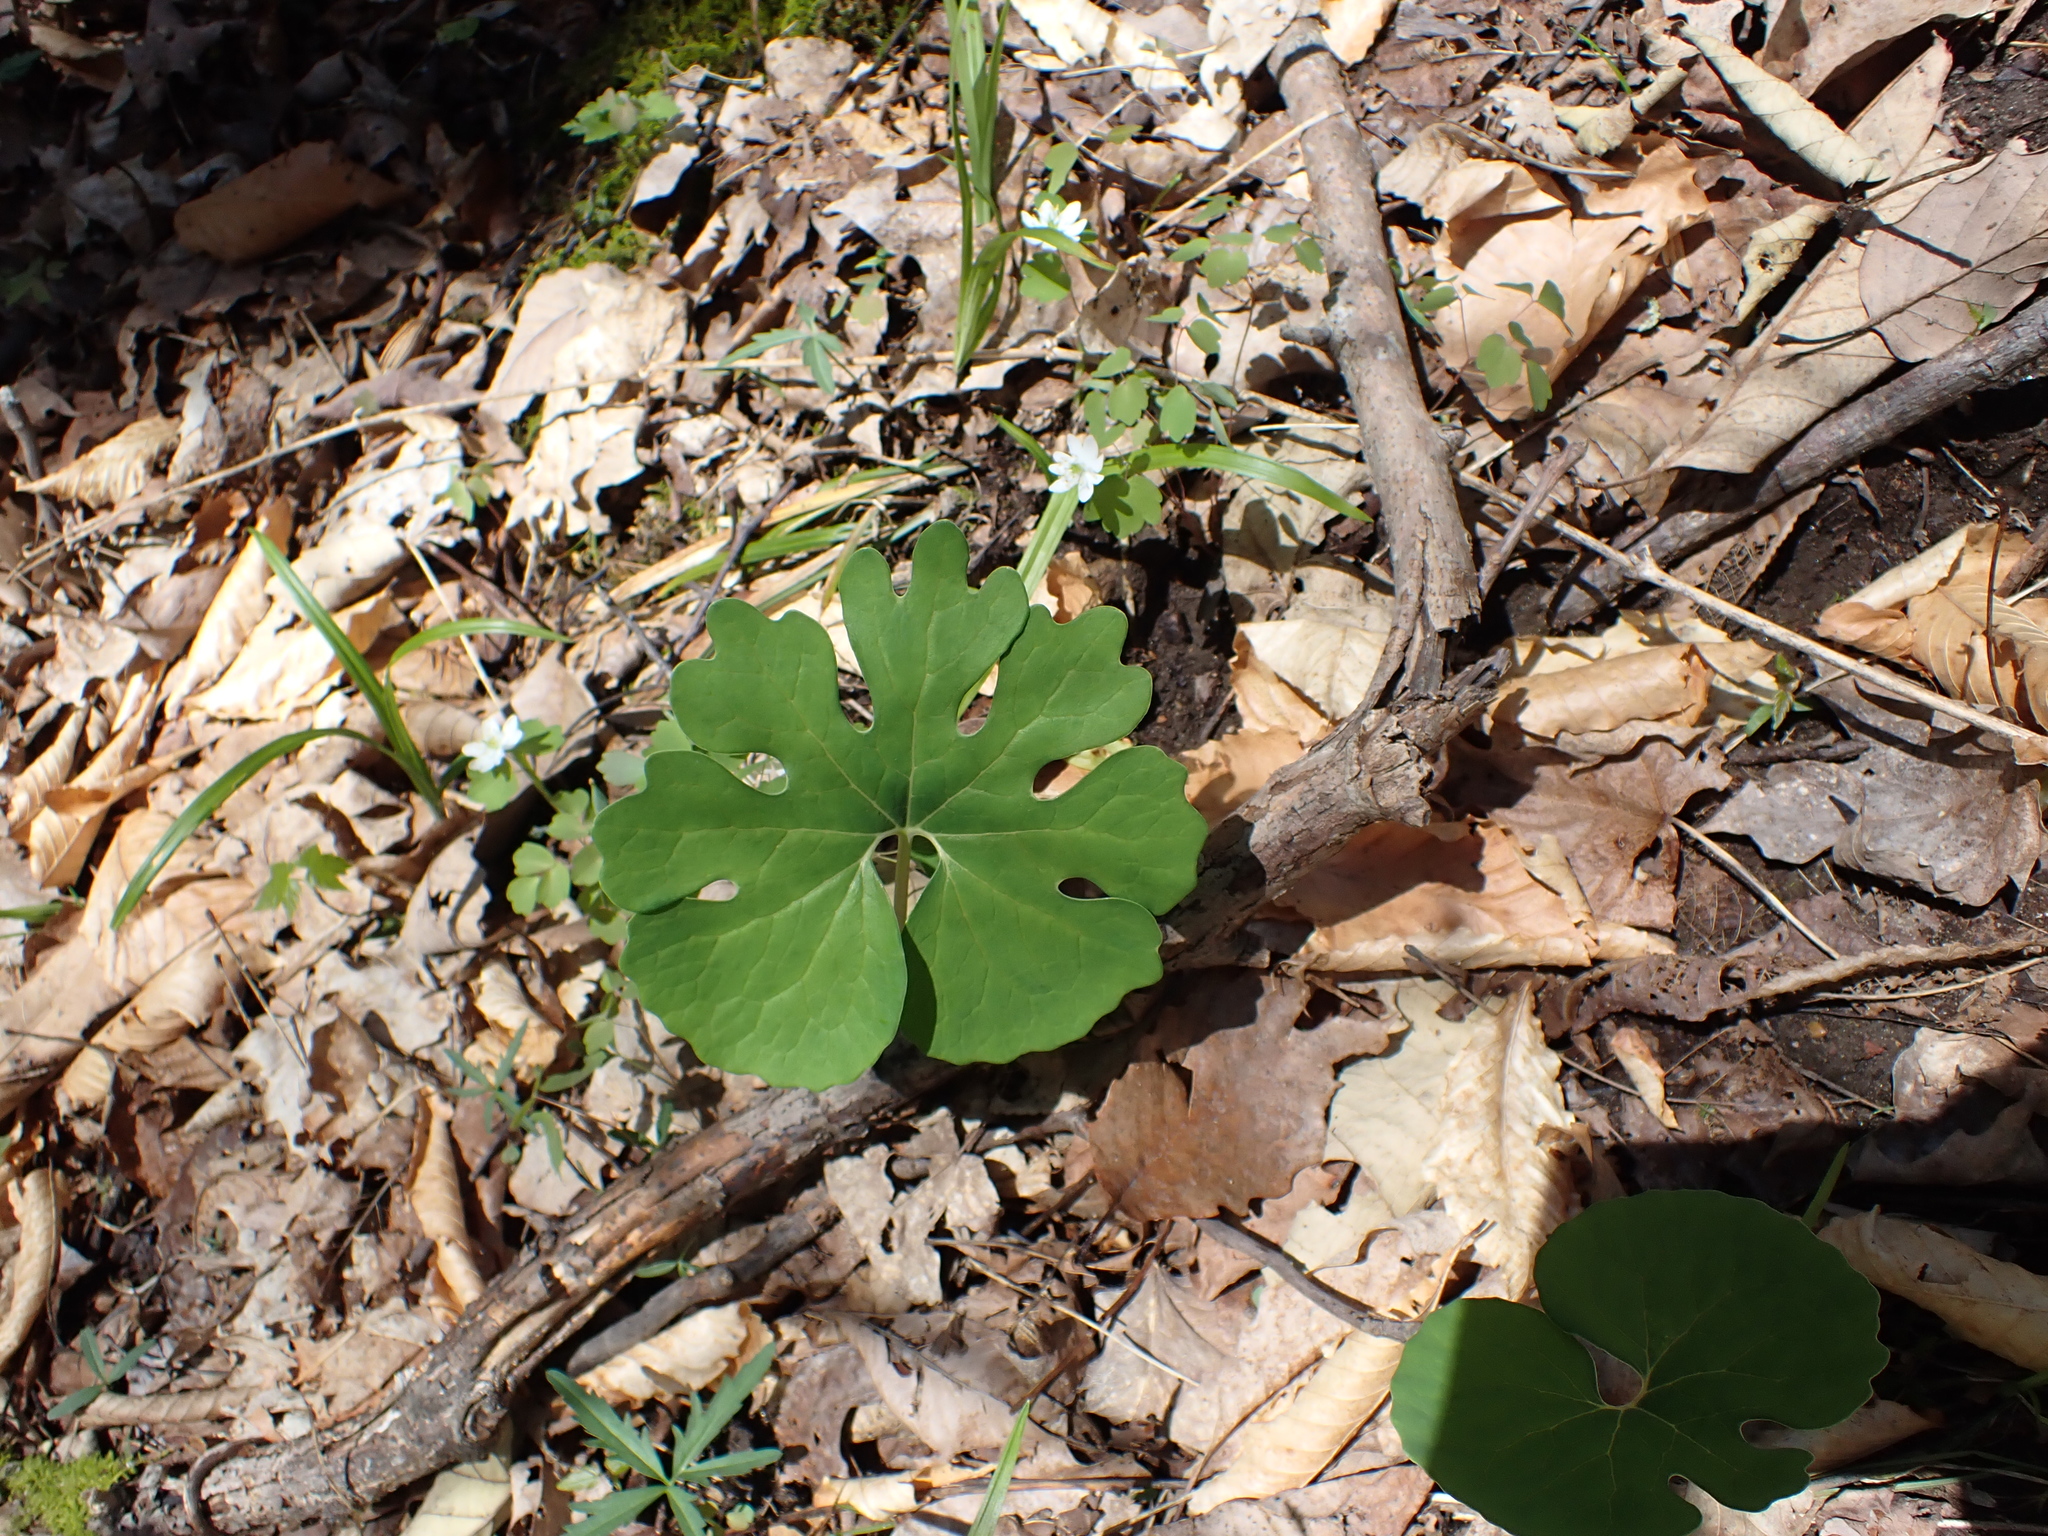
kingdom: Plantae
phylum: Tracheophyta
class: Magnoliopsida
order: Ranunculales
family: Papaveraceae
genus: Sanguinaria
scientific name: Sanguinaria canadensis
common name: Bloodroot
